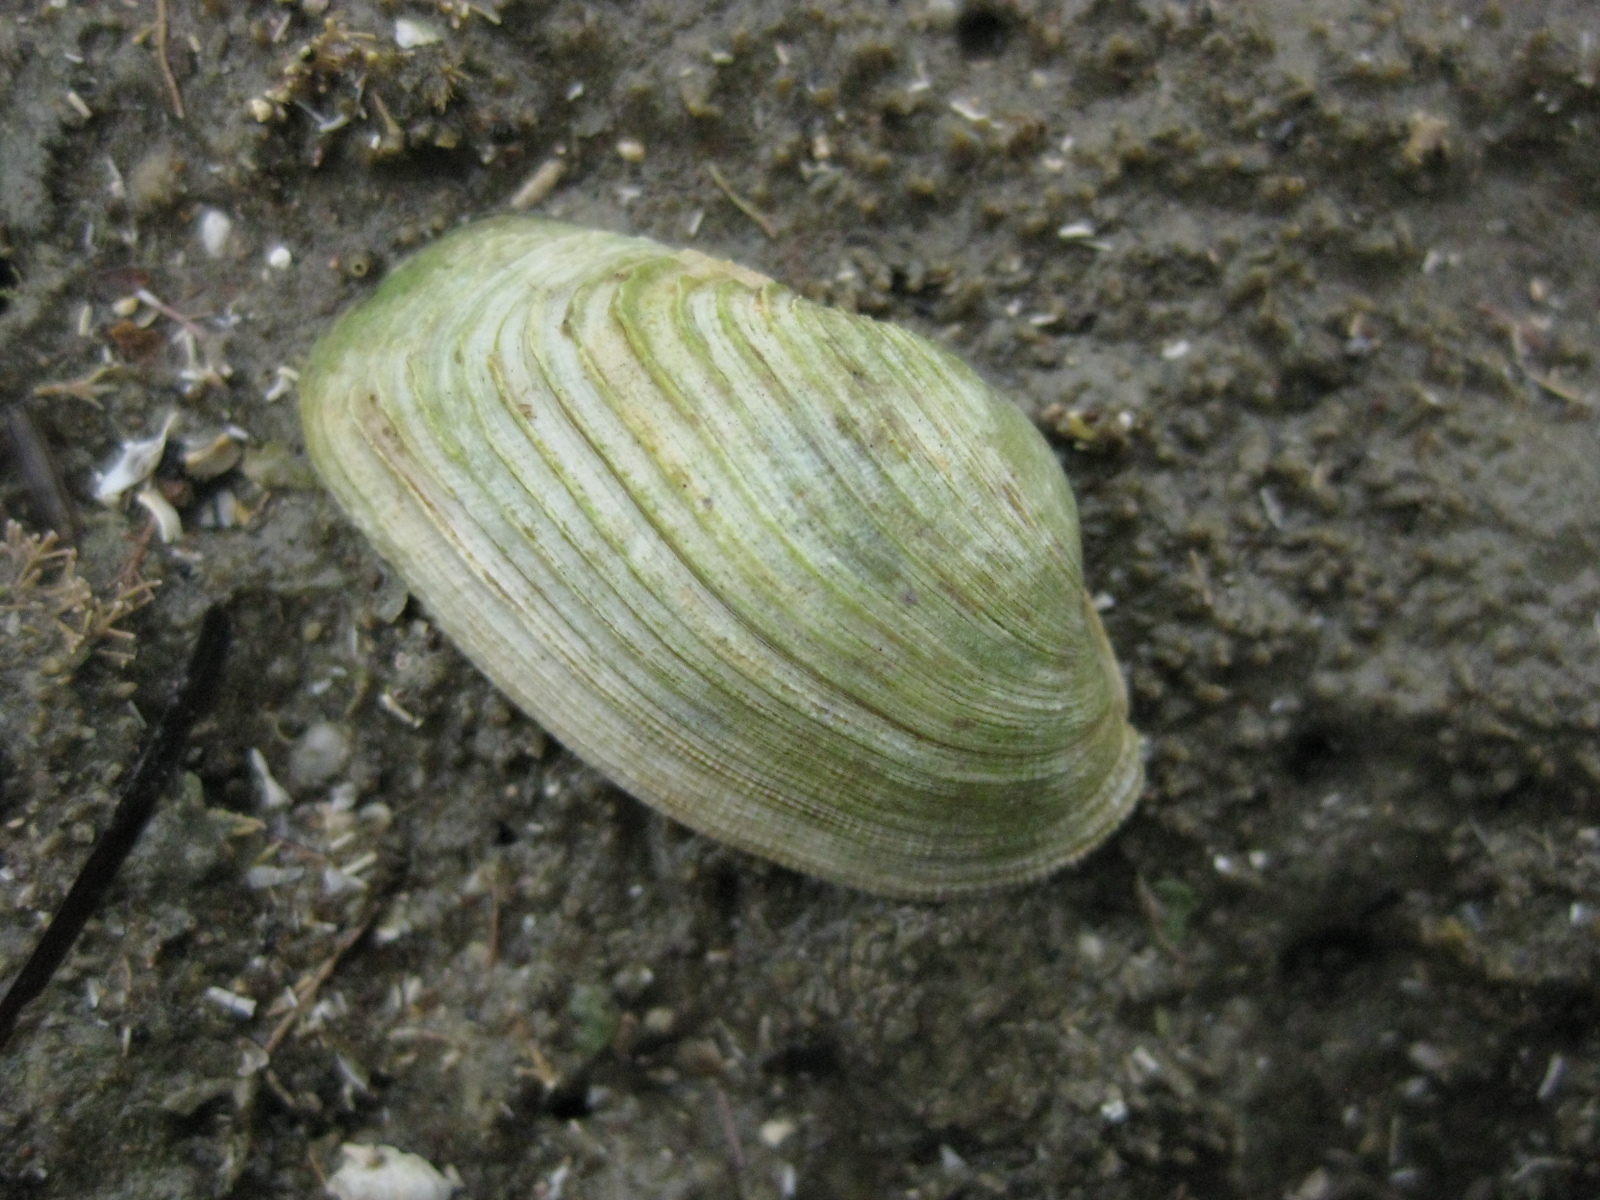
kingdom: Animalia
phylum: Mollusca
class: Bivalvia
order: Venerida
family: Veneridae
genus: Irus
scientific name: Irus elegans
